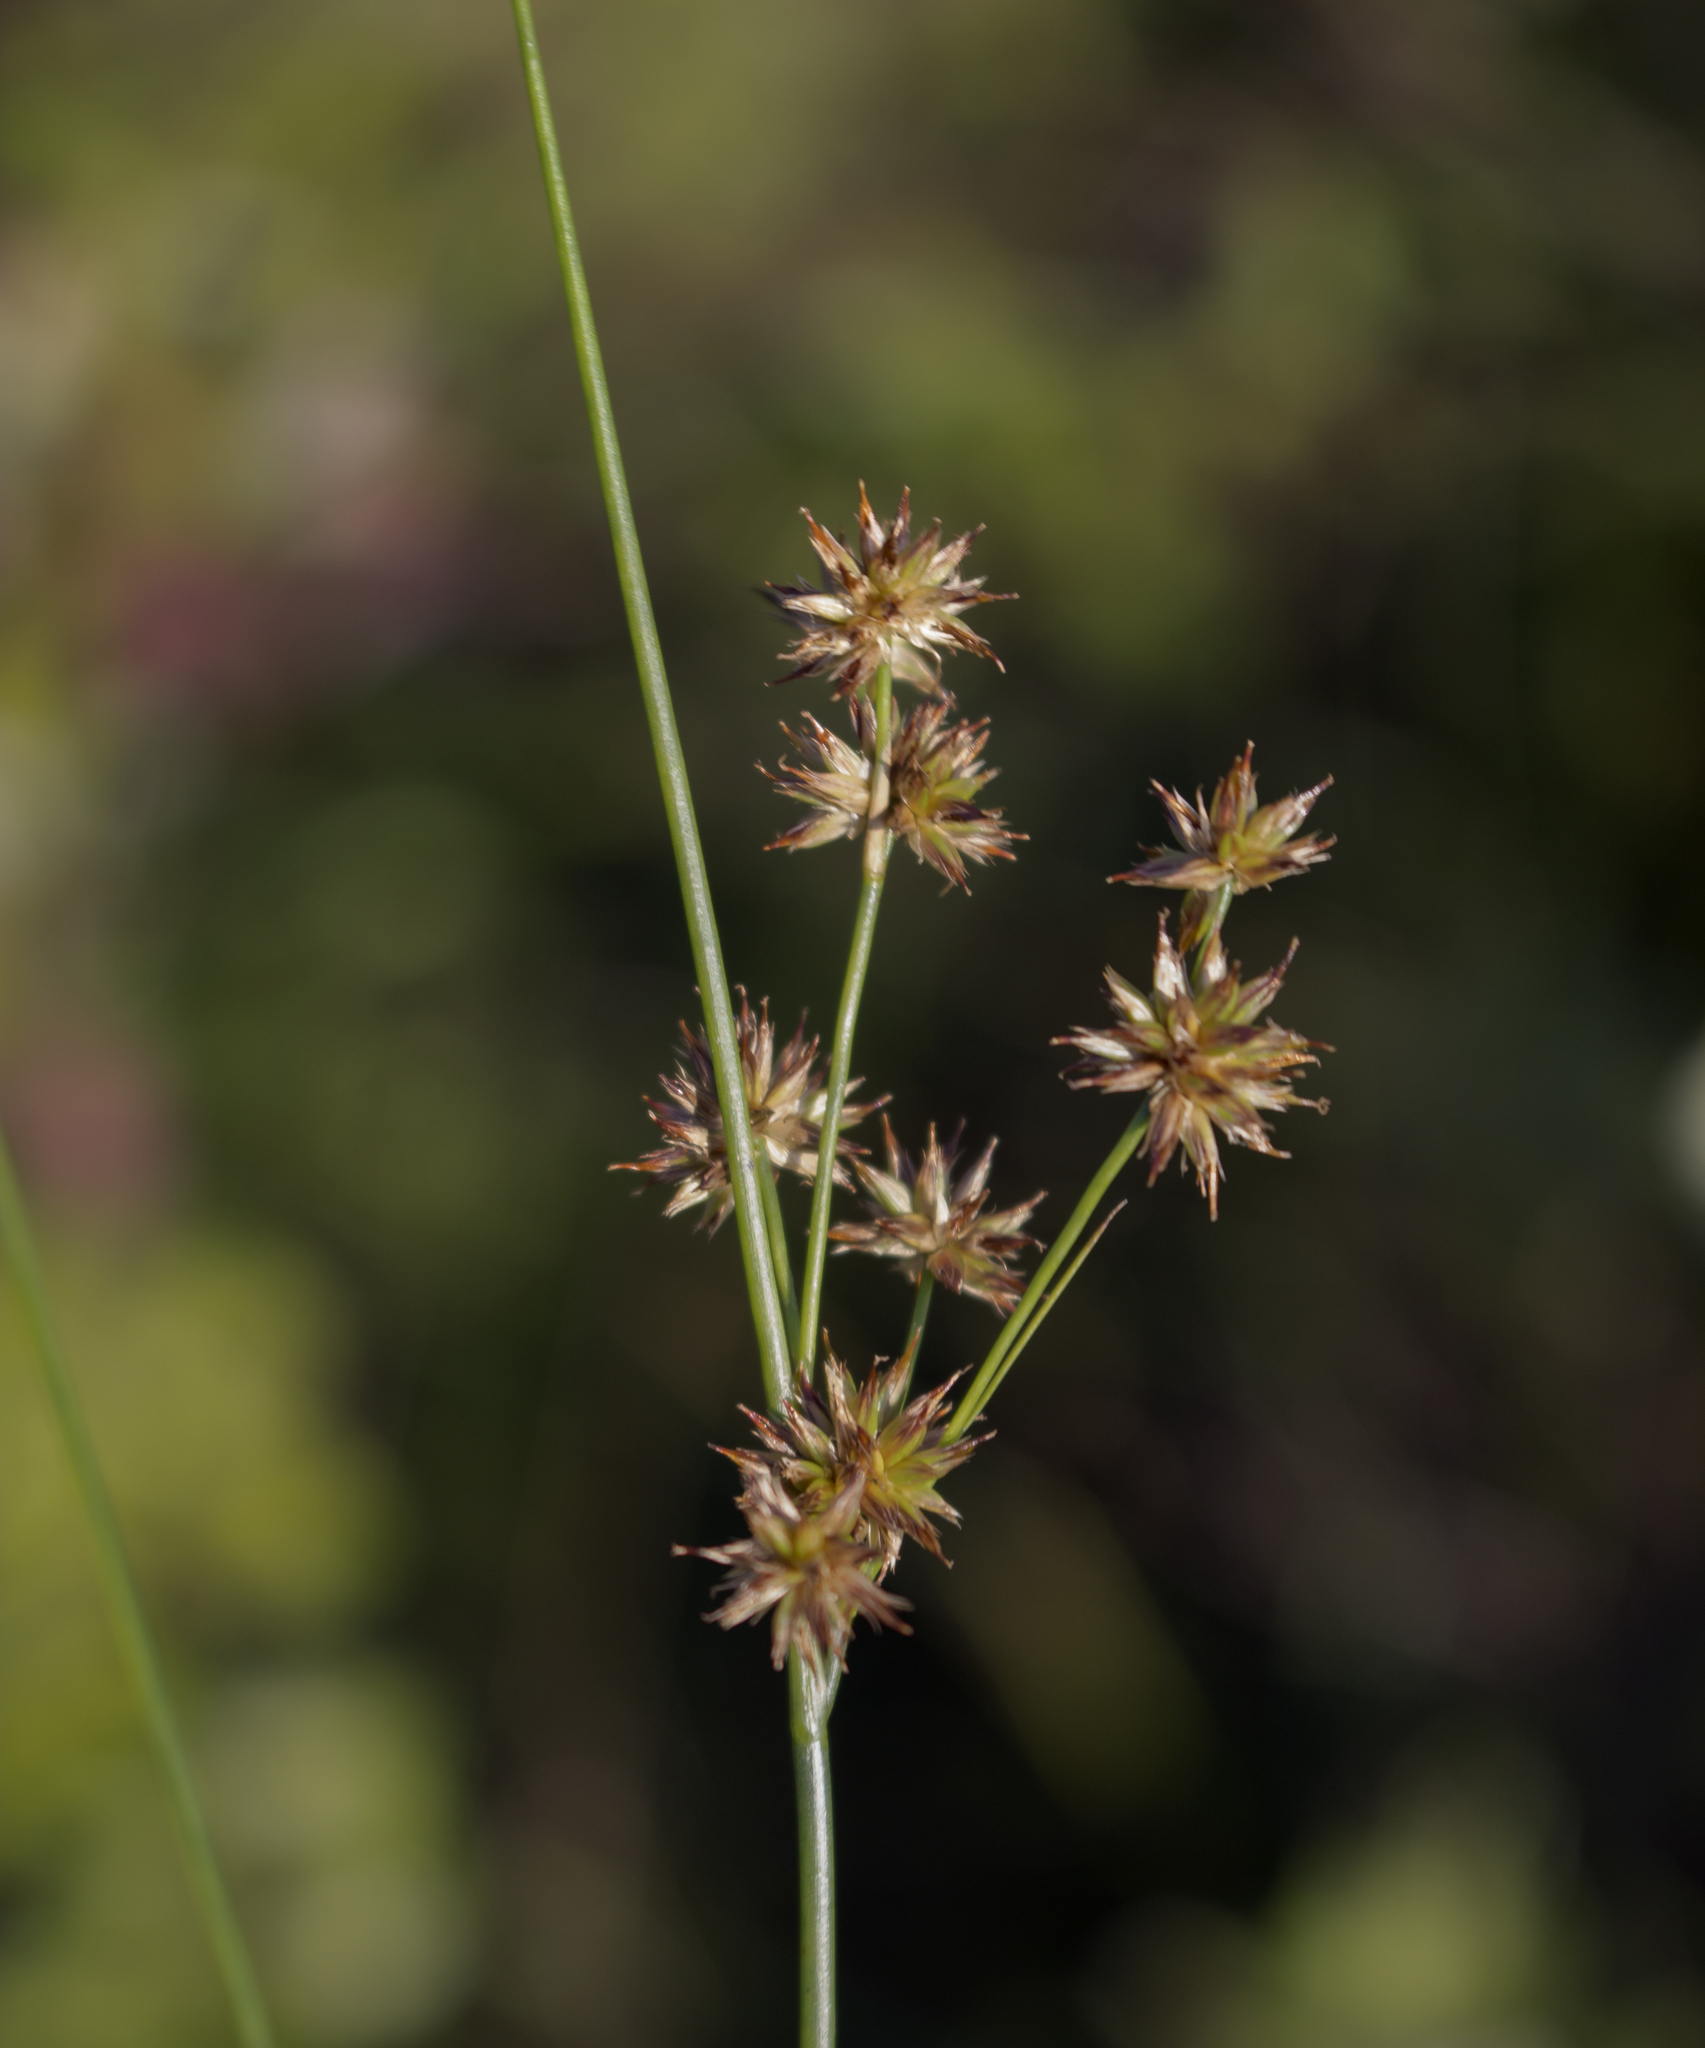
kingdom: Plantae
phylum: Tracheophyta
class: Liliopsida
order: Poales
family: Juncaceae
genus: Juncus
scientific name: Juncus nodosus
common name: Knotted rush
